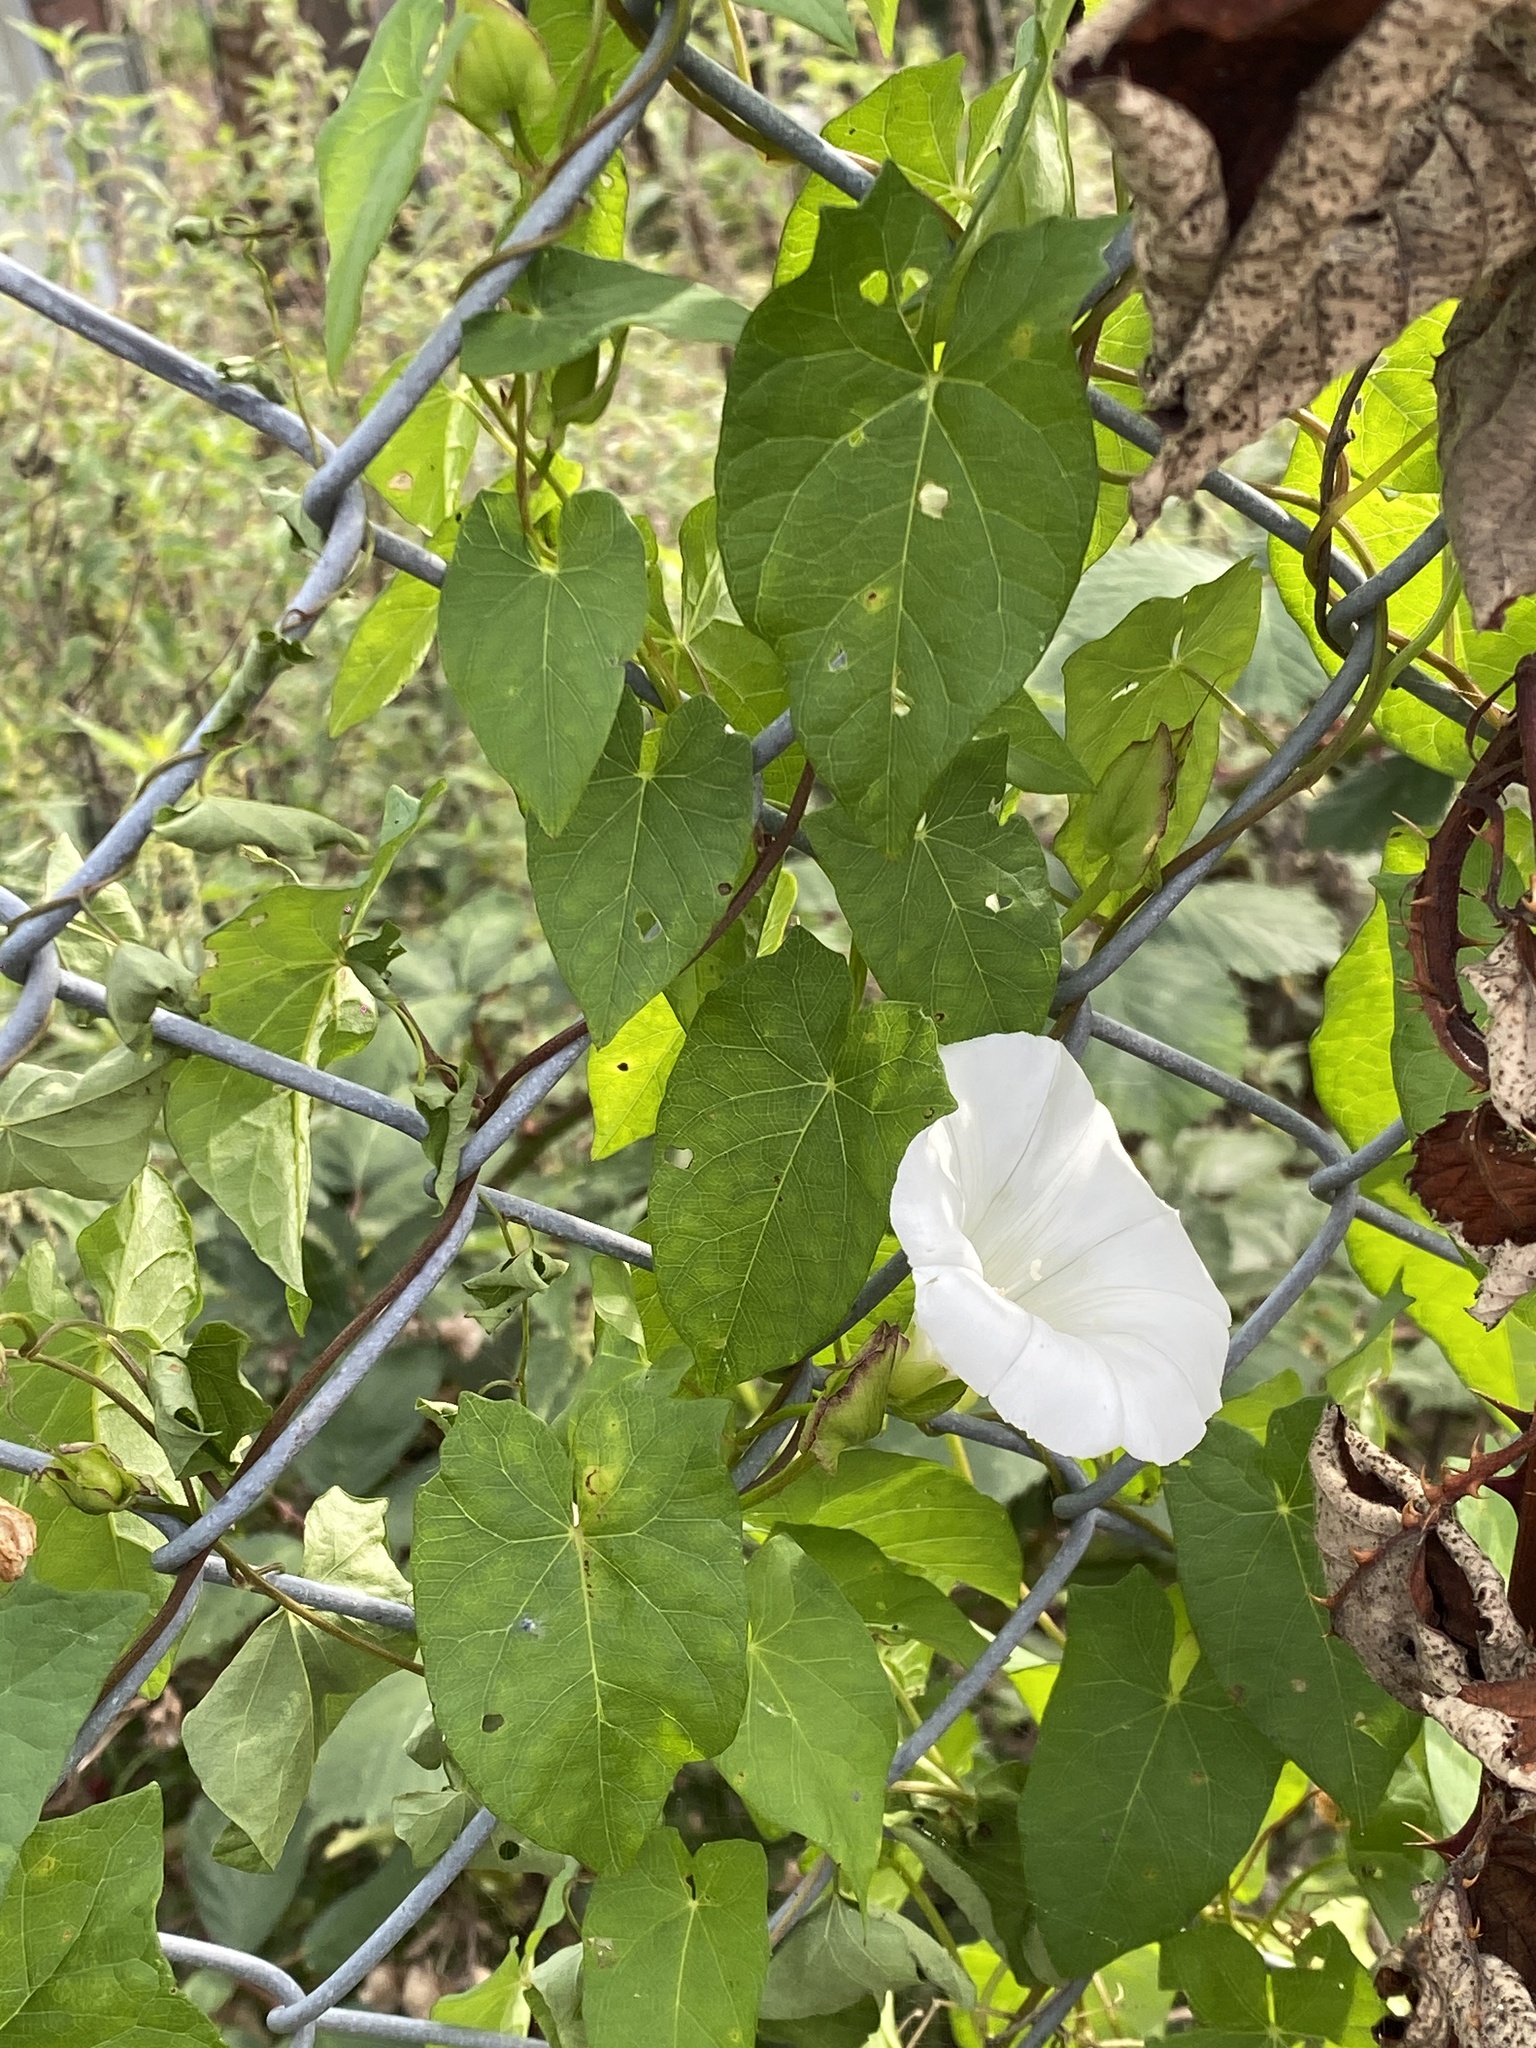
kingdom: Plantae
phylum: Tracheophyta
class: Magnoliopsida
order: Solanales
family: Convolvulaceae
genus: Calystegia
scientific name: Calystegia sepium
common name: Hedge bindweed
